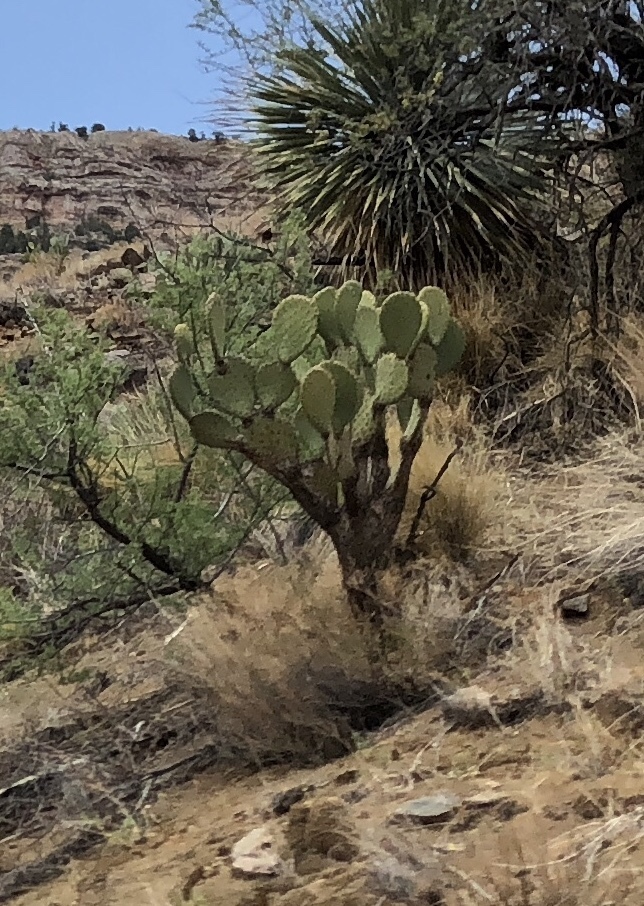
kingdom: Plantae
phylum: Tracheophyta
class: Magnoliopsida
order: Caryophyllales
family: Cactaceae
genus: Opuntia
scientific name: Opuntia chlorotica
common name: Dollar-joint prickly-pear
